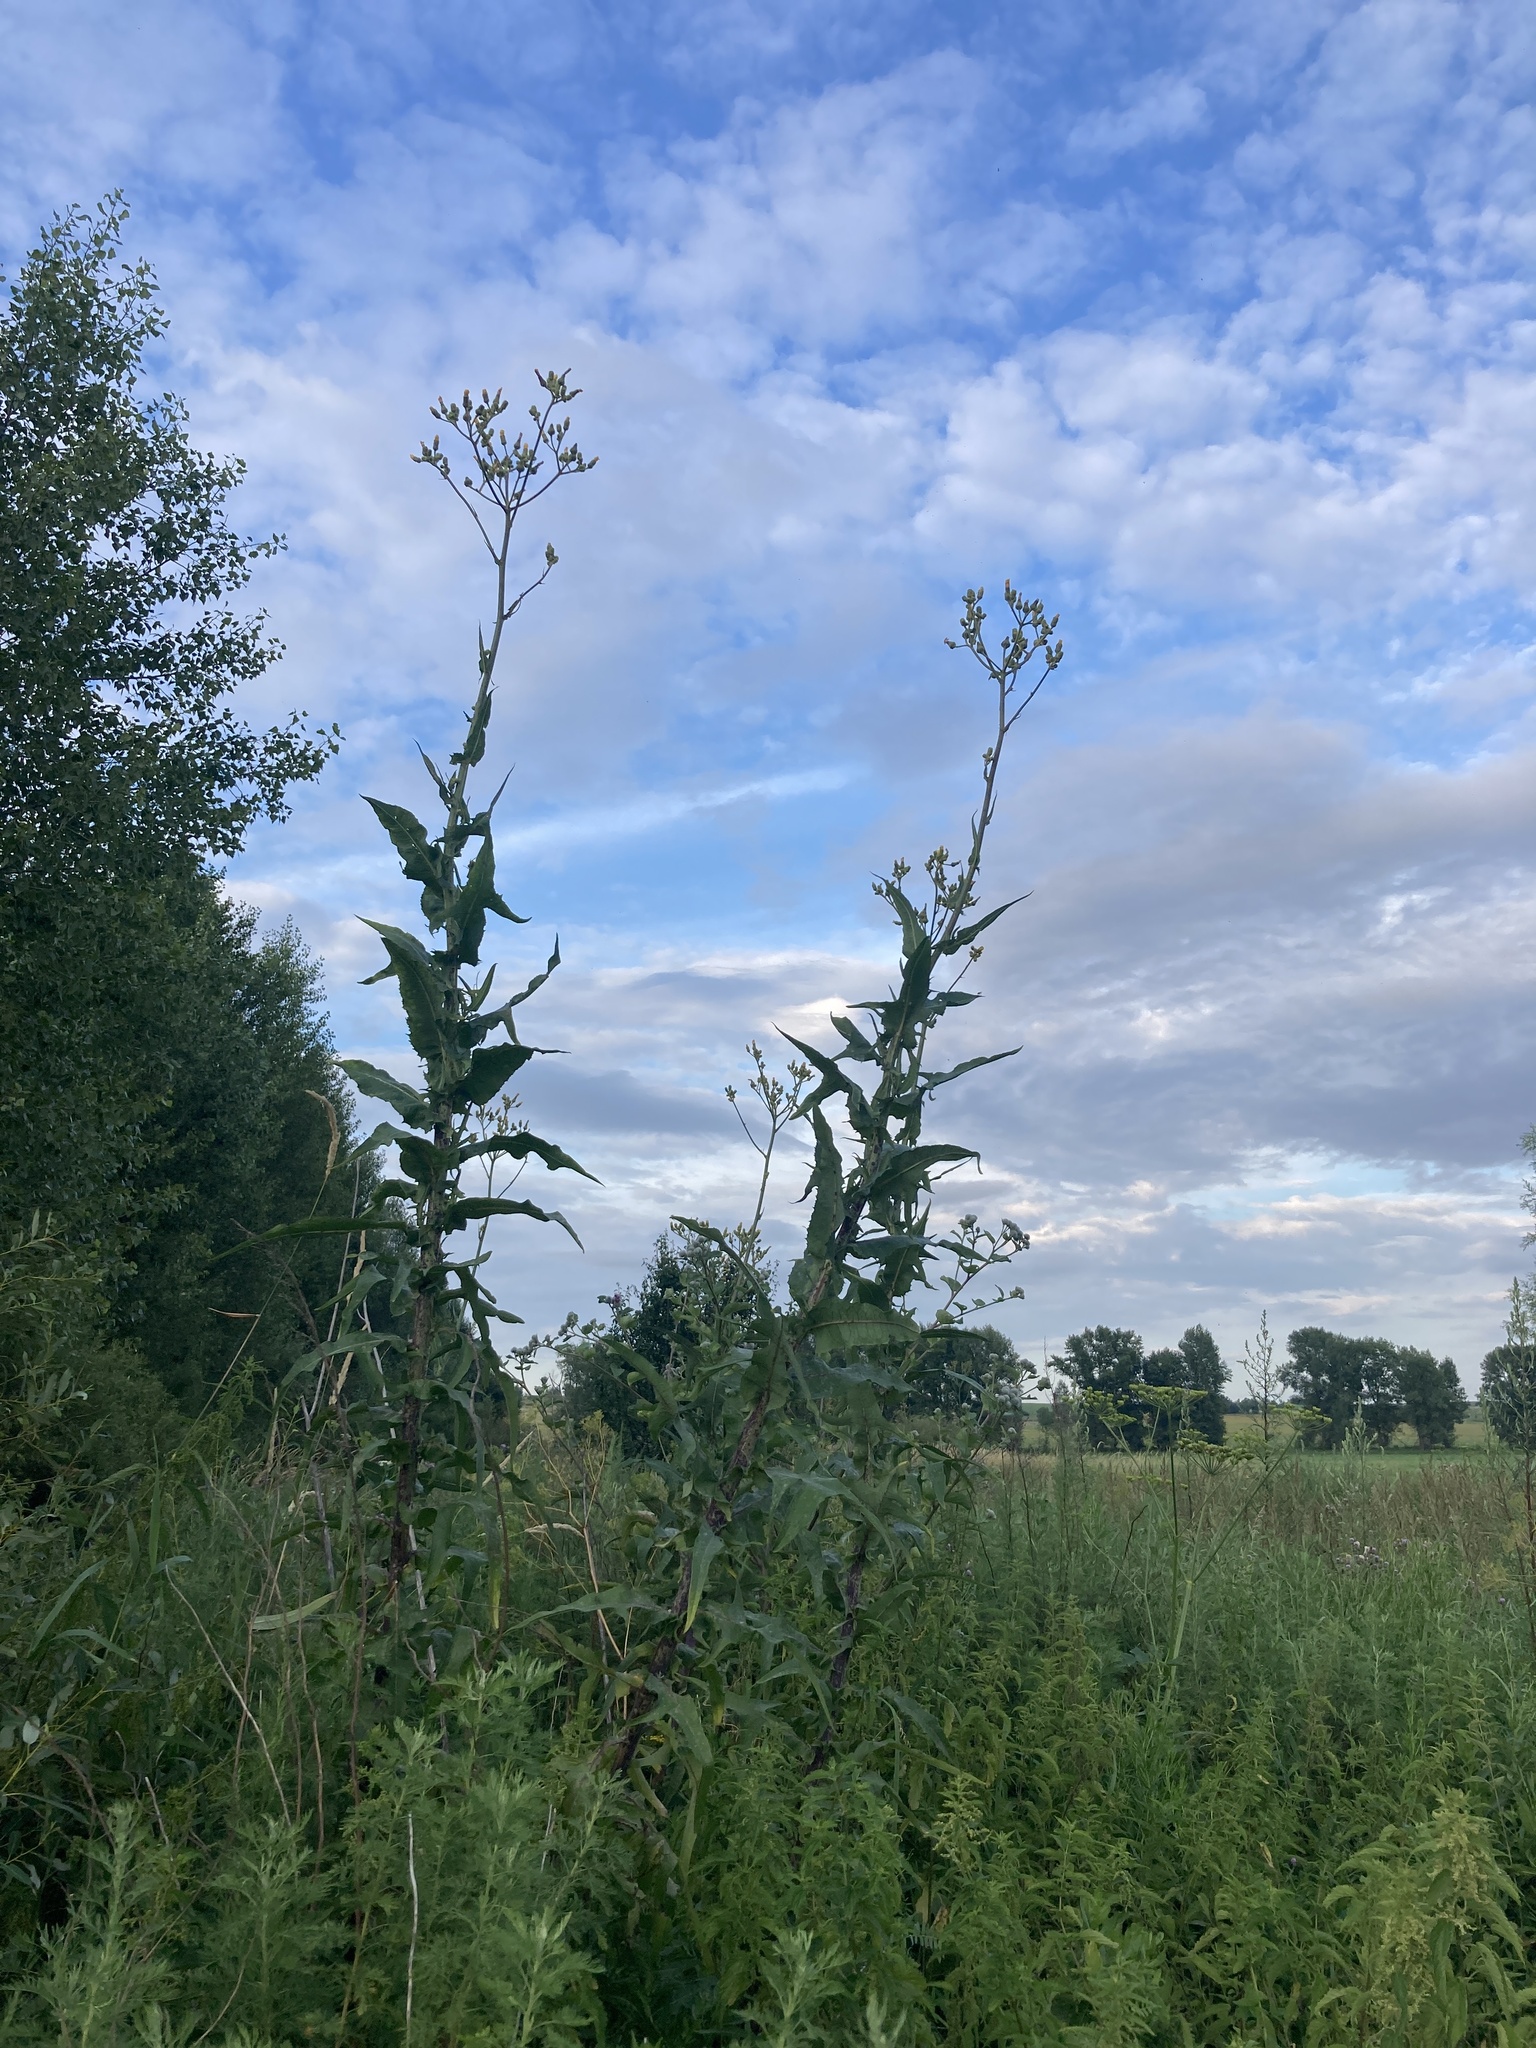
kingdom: Plantae
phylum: Tracheophyta
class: Magnoliopsida
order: Asterales
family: Asteraceae
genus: Sonchus
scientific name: Sonchus palustris
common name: Marsh sow-thistle
